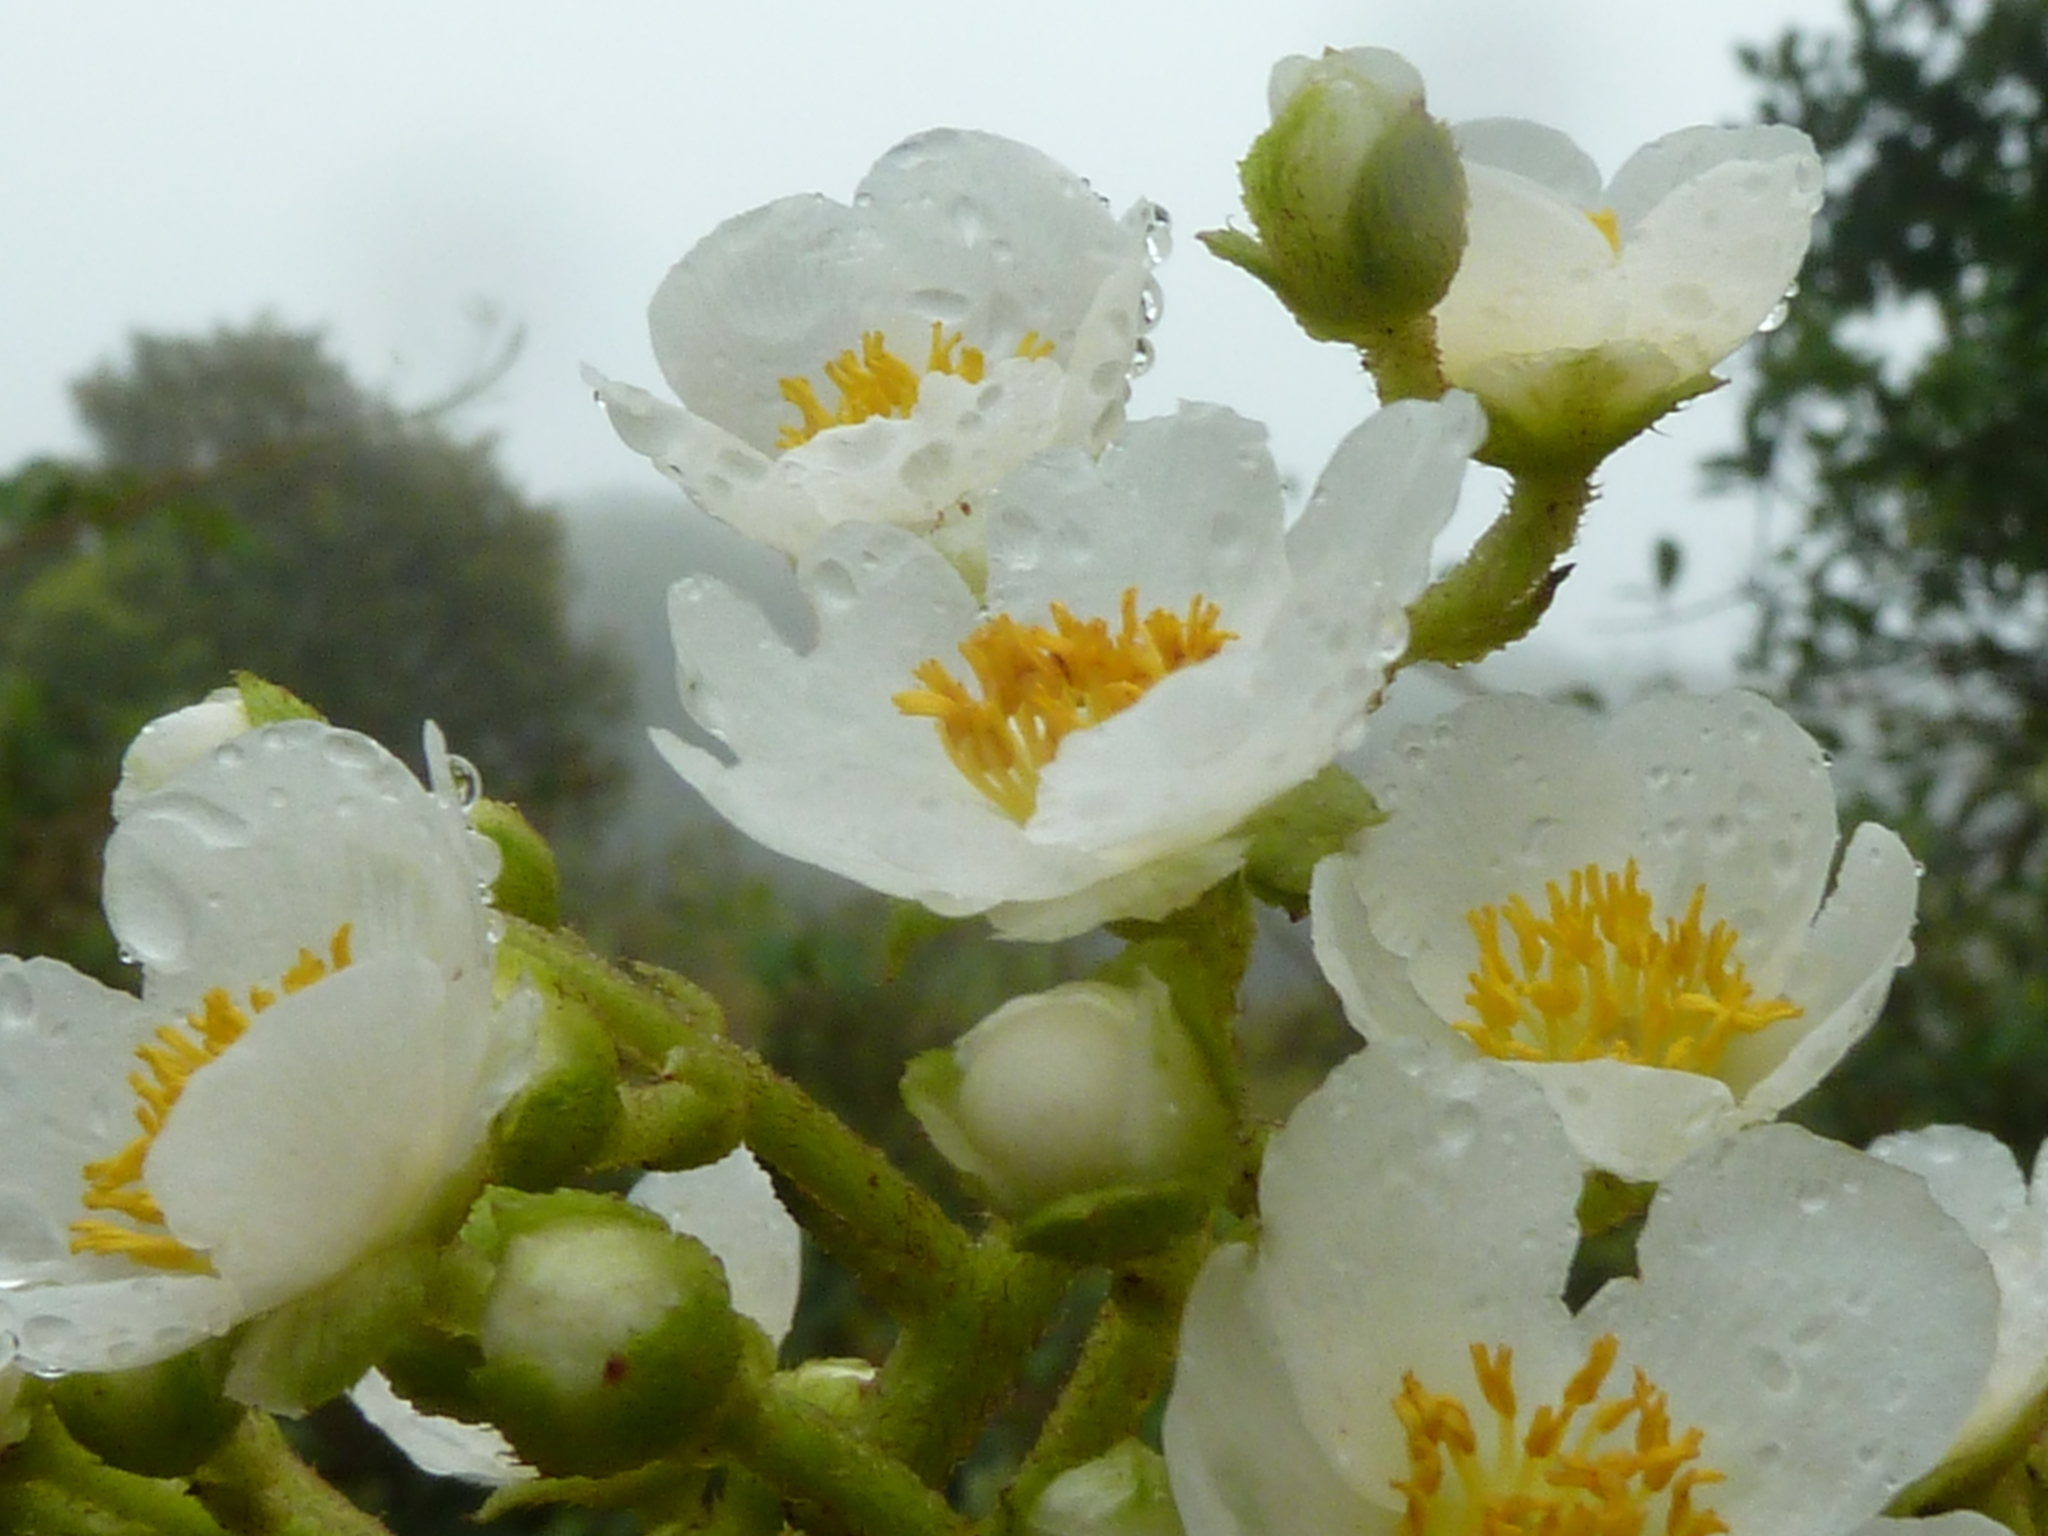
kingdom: Plantae
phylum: Tracheophyta
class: Magnoliopsida
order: Ericales
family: Actinidiaceae
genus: Saurauia
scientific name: Saurauia montana
